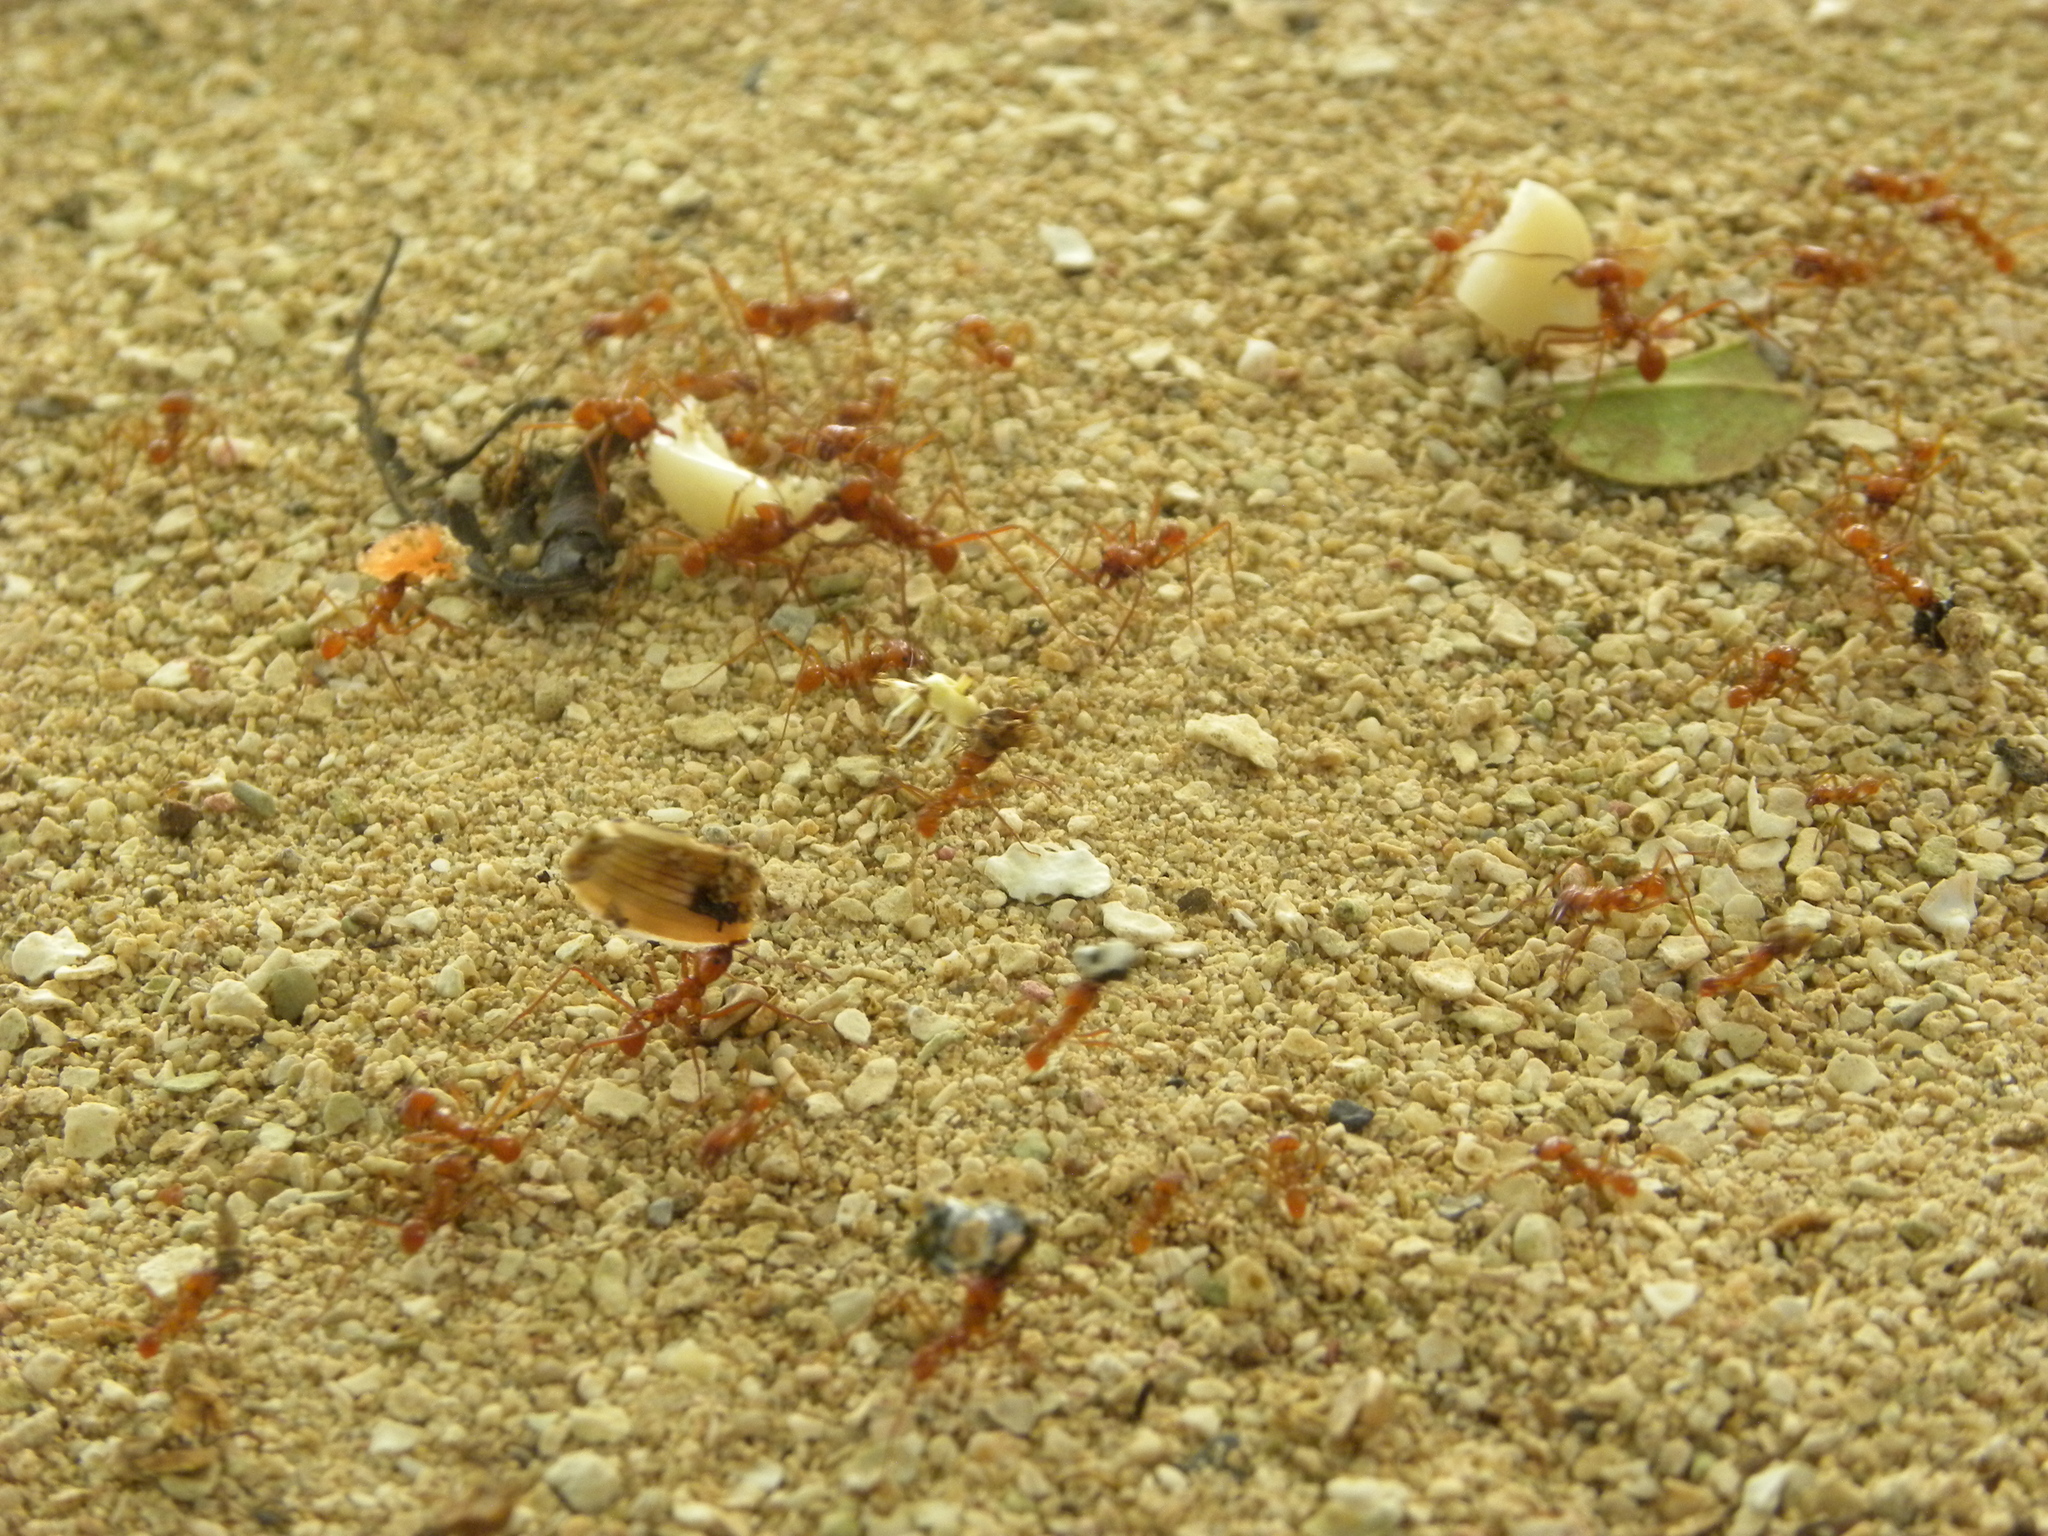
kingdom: Animalia
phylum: Arthropoda
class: Insecta
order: Hymenoptera
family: Formicidae
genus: Atta
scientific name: Atta cephalotes
